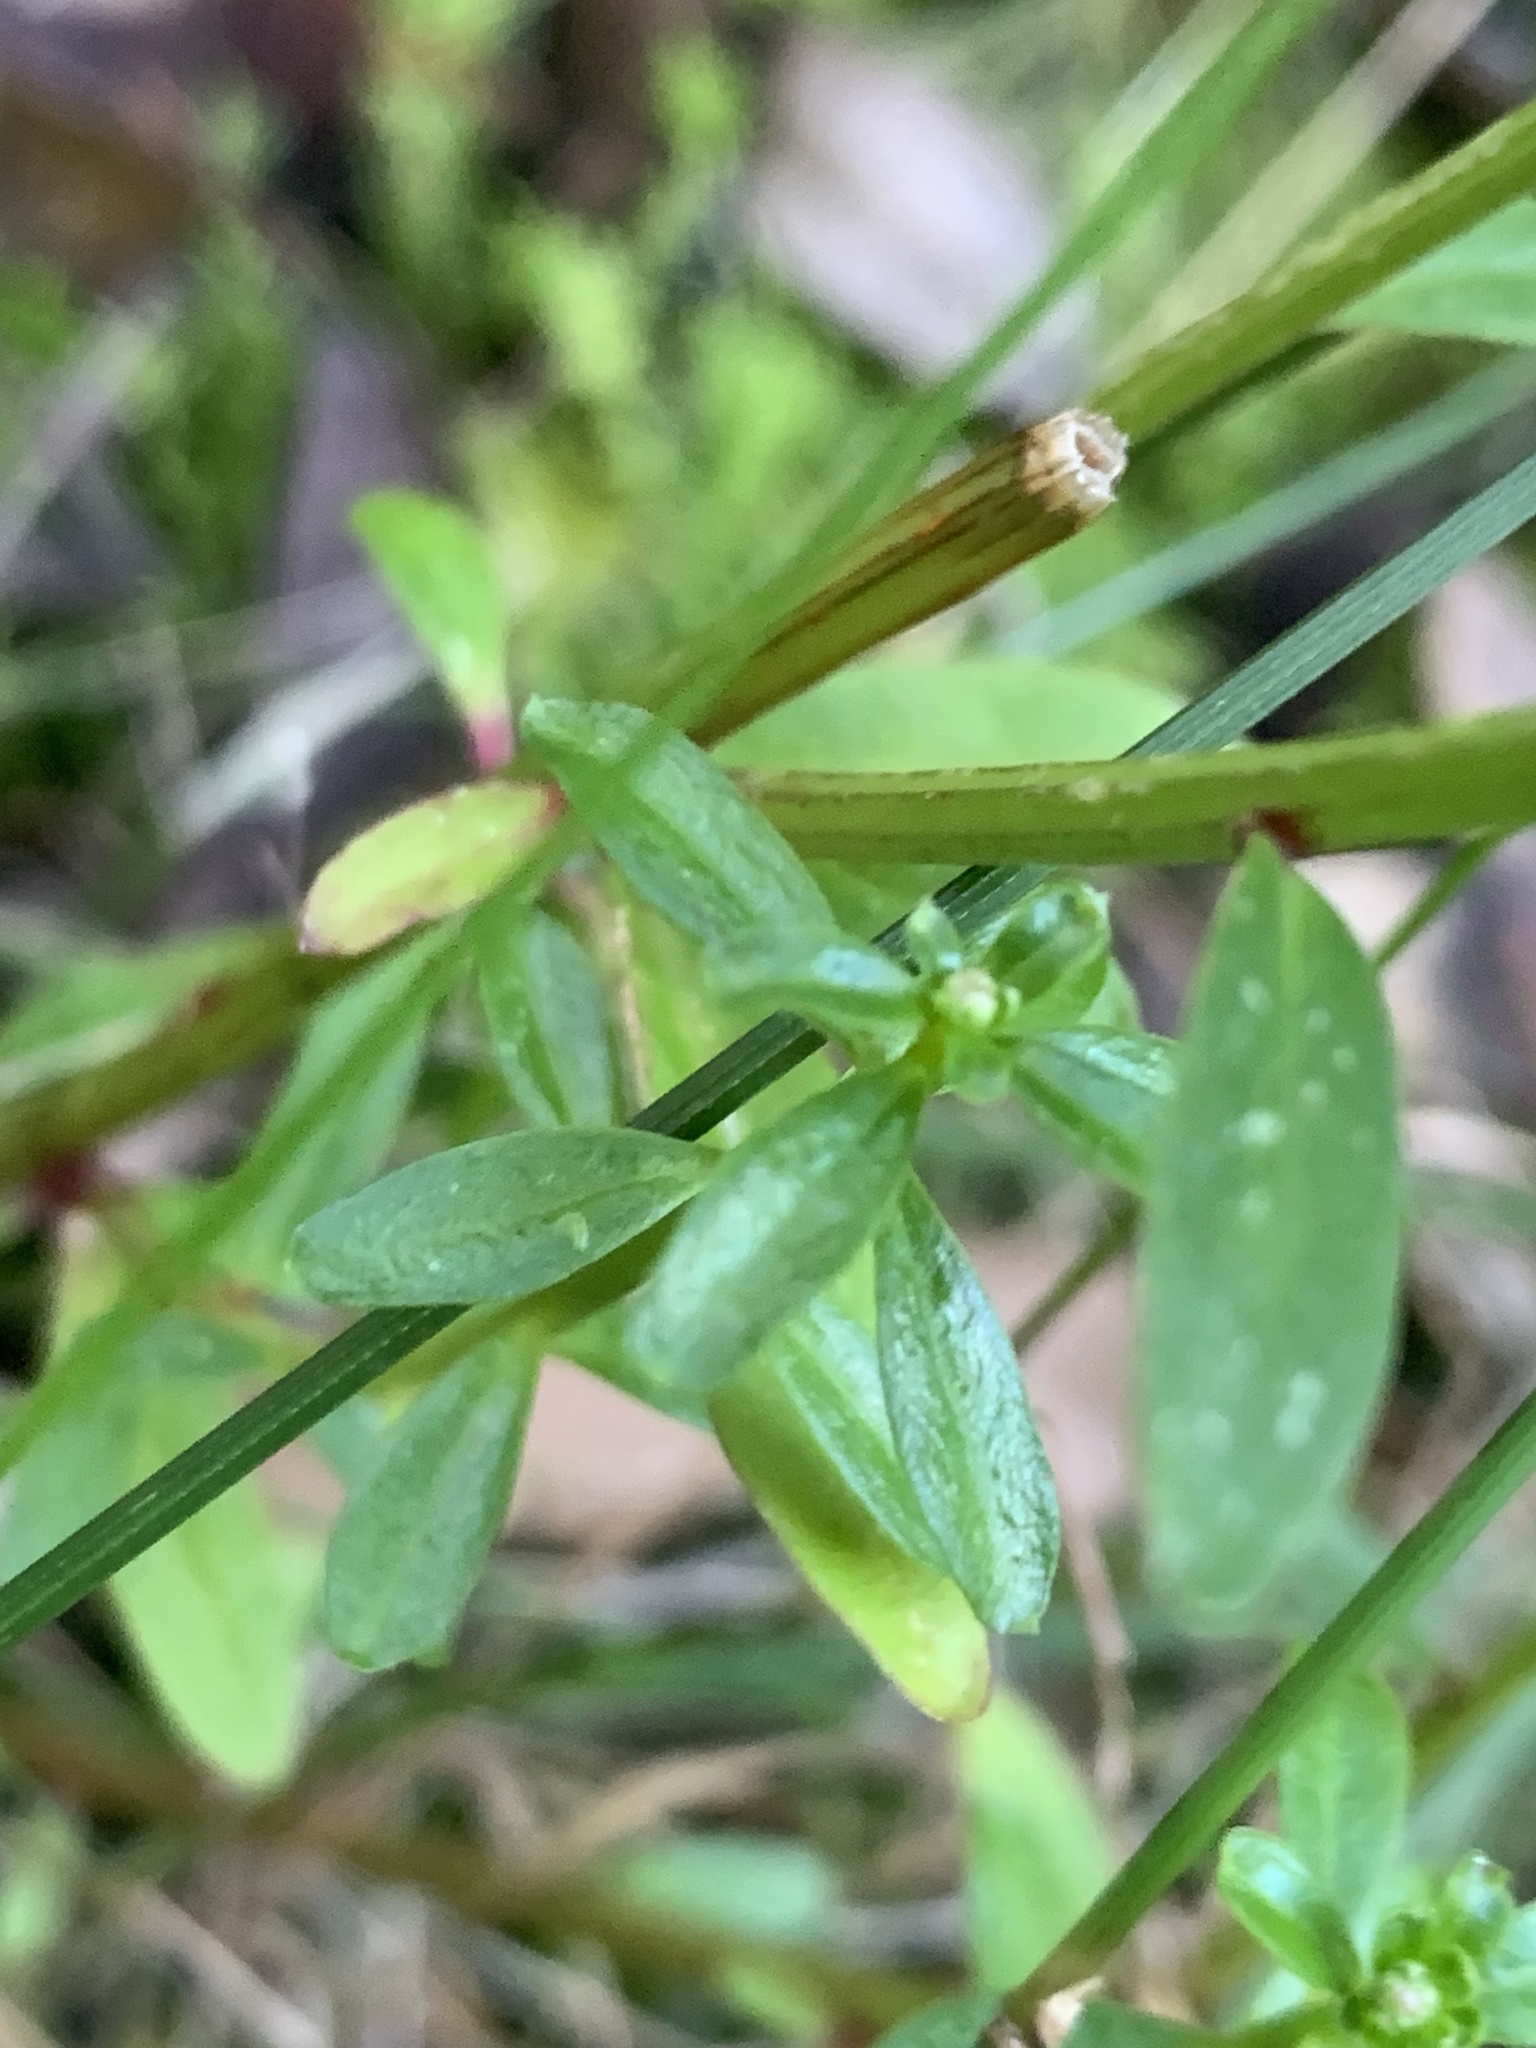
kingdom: Plantae
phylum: Tracheophyta
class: Magnoliopsida
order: Celastrales
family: Celastraceae
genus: Stackhousia
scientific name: Stackhousia monogyna
